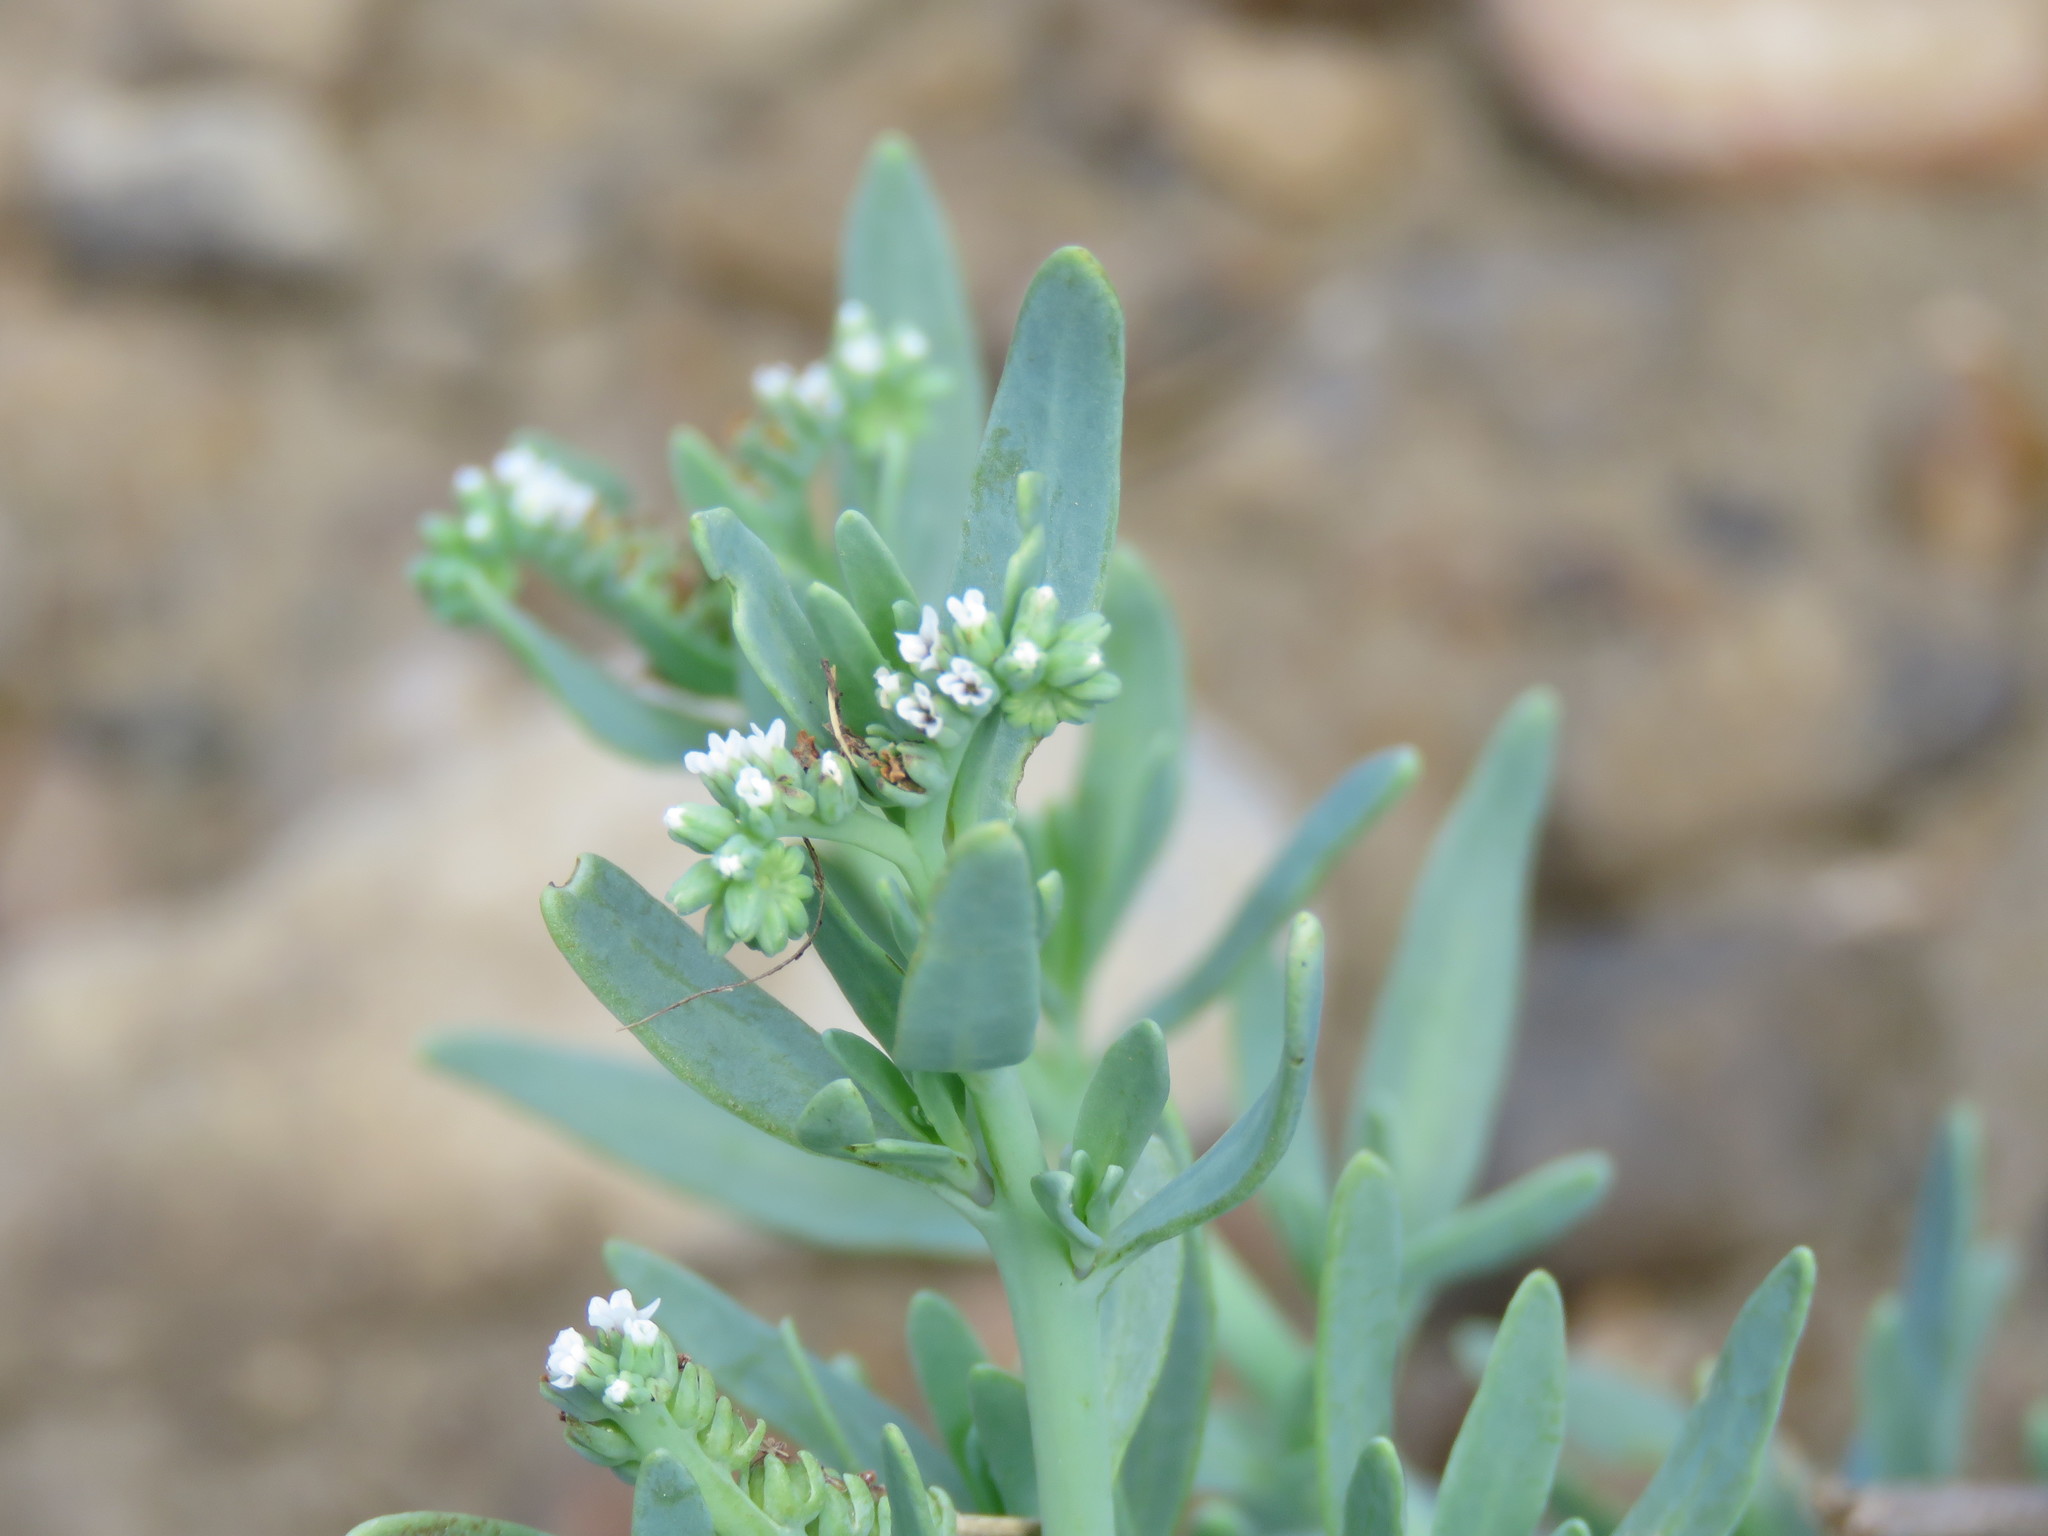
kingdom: Plantae
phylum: Tracheophyta
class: Magnoliopsida
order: Boraginales
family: Heliotropiaceae
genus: Heliotropium
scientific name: Heliotropium curassavicum
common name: Seaside heliotrope
